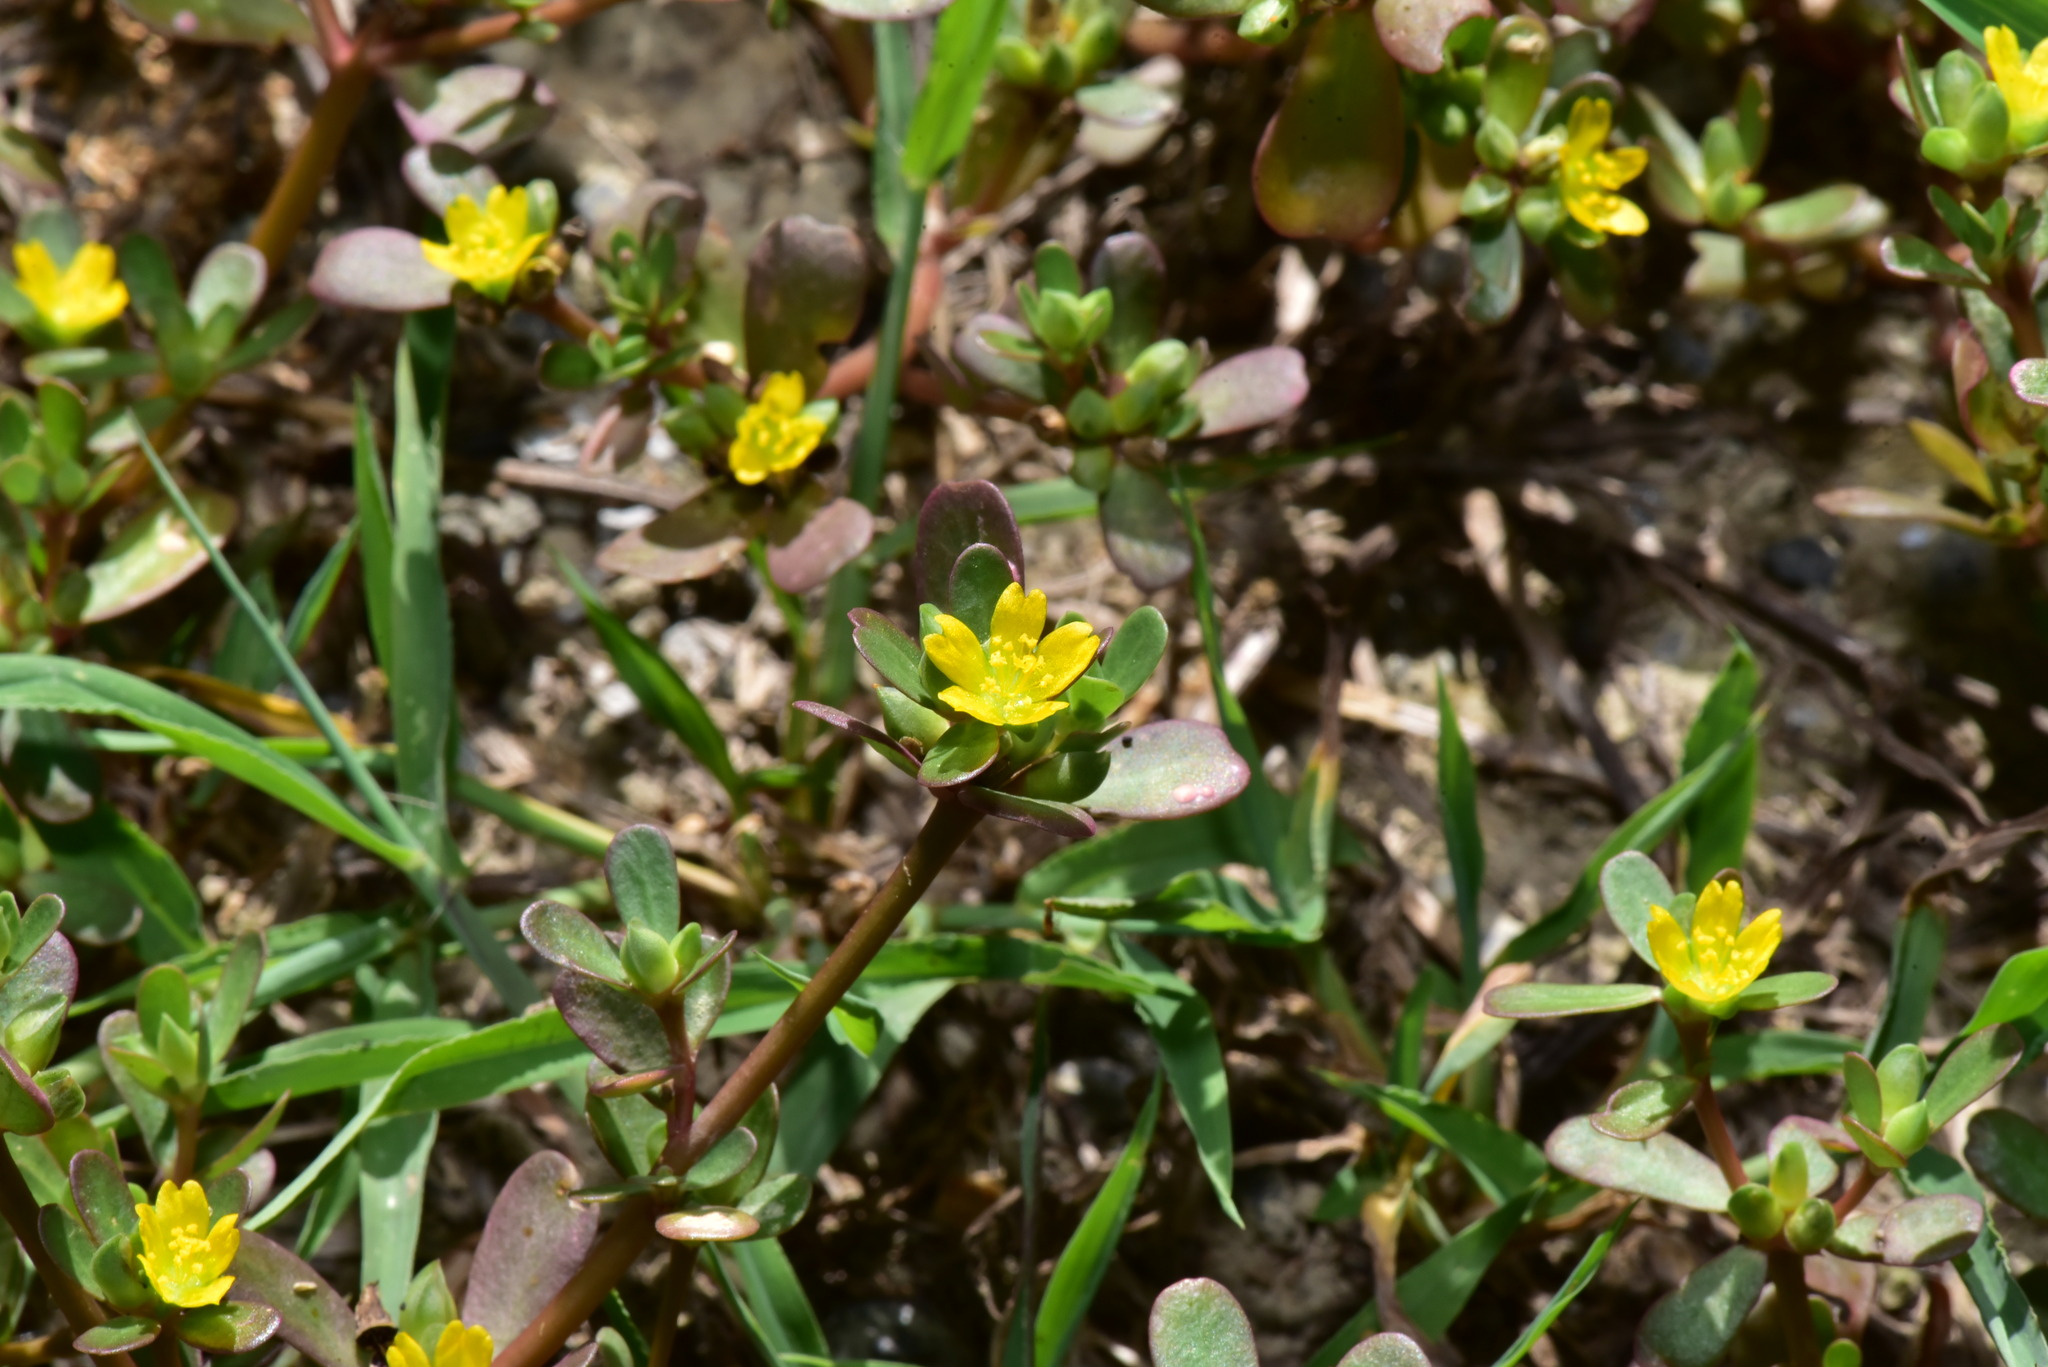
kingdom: Plantae
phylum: Tracheophyta
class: Magnoliopsida
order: Caryophyllales
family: Portulacaceae
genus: Portulaca
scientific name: Portulaca oleracea
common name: Common purslane
